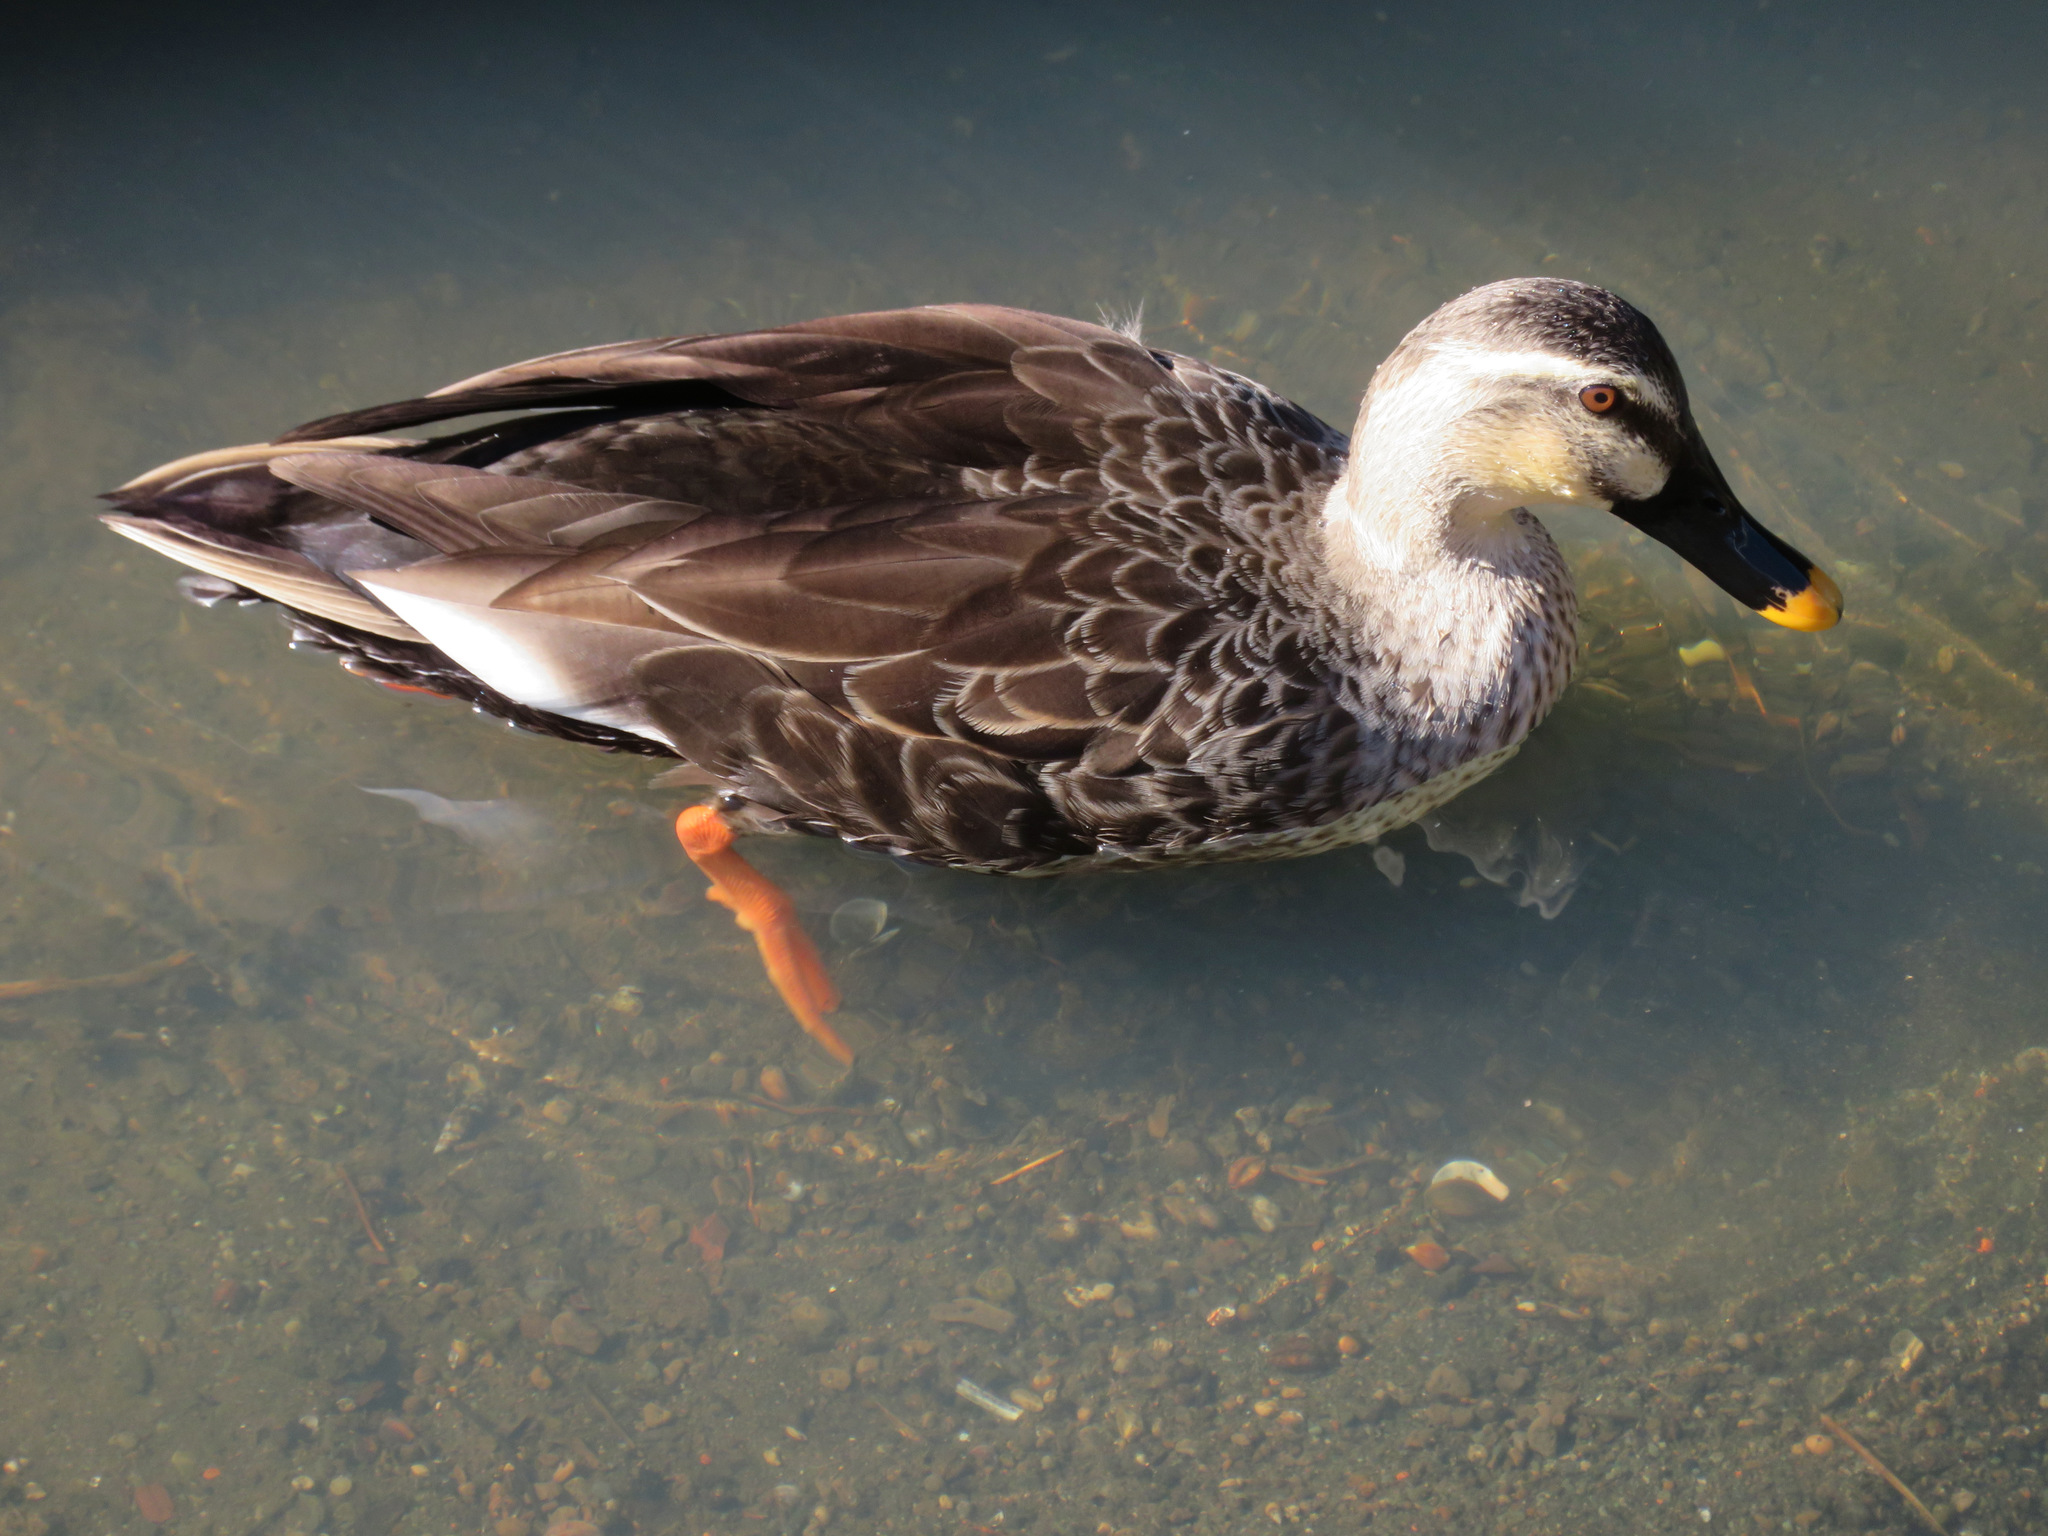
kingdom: Animalia
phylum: Chordata
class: Aves
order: Anseriformes
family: Anatidae
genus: Anas
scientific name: Anas zonorhyncha
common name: Eastern spot-billed duck
